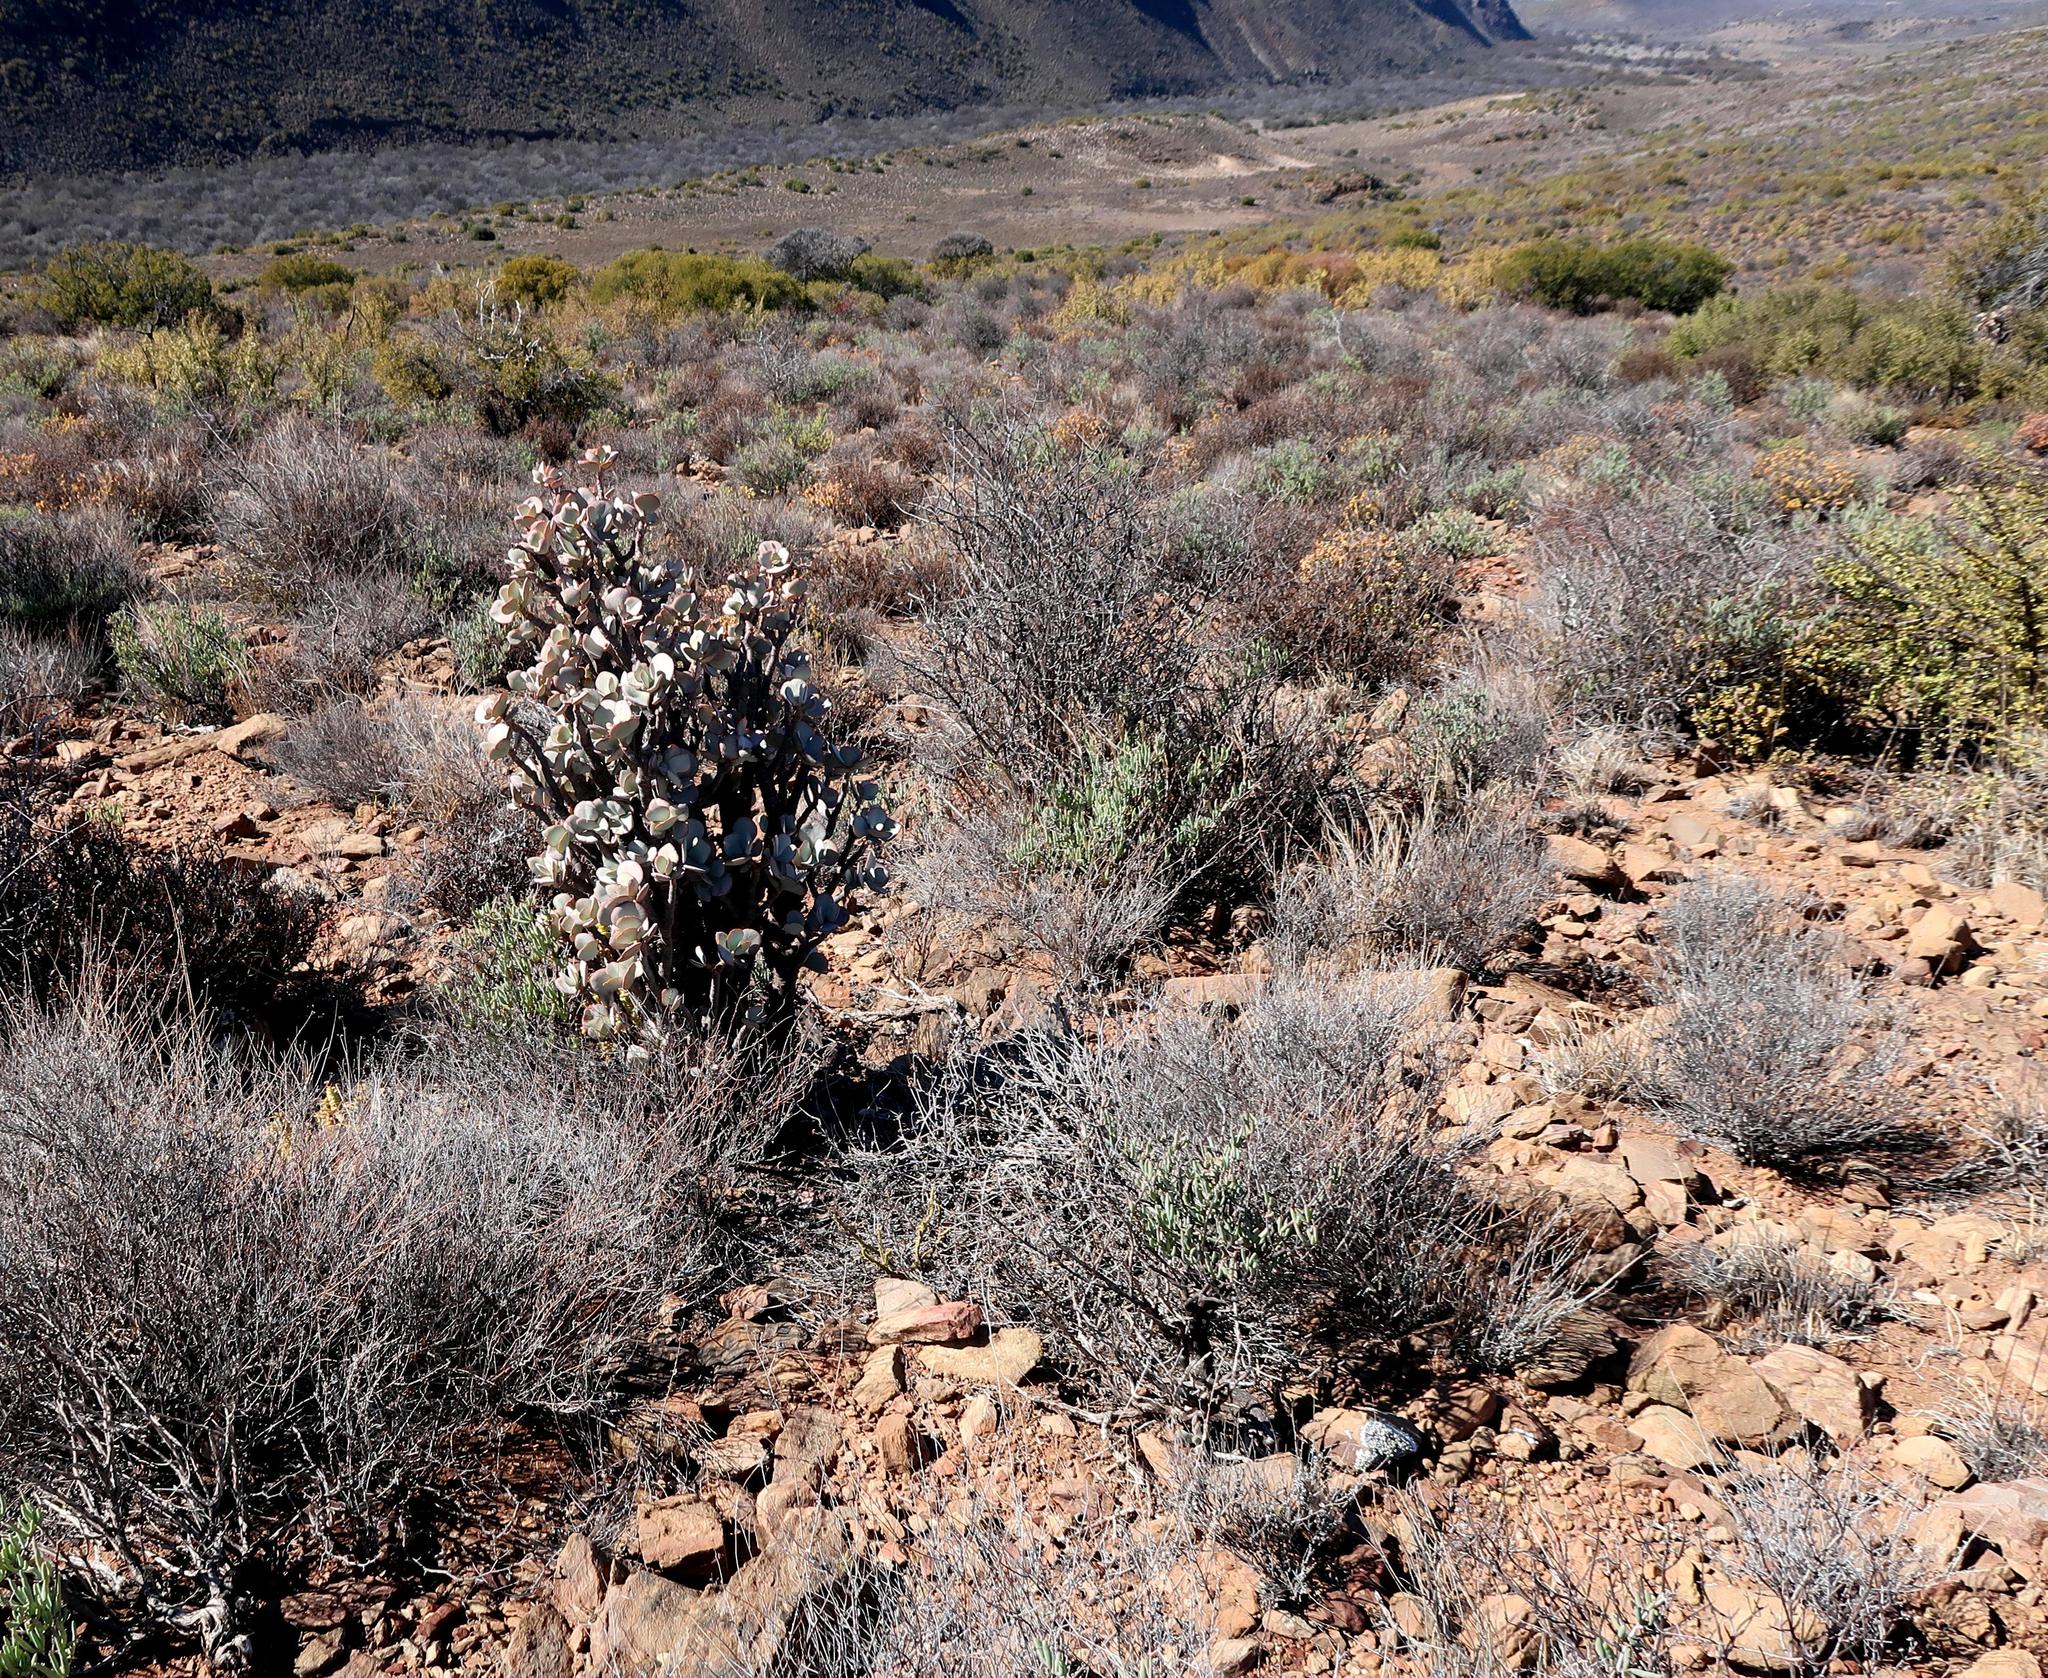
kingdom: Plantae
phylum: Tracheophyta
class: Magnoliopsida
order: Saxifragales
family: Crassulaceae
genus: Crassula
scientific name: Crassula arborescens
